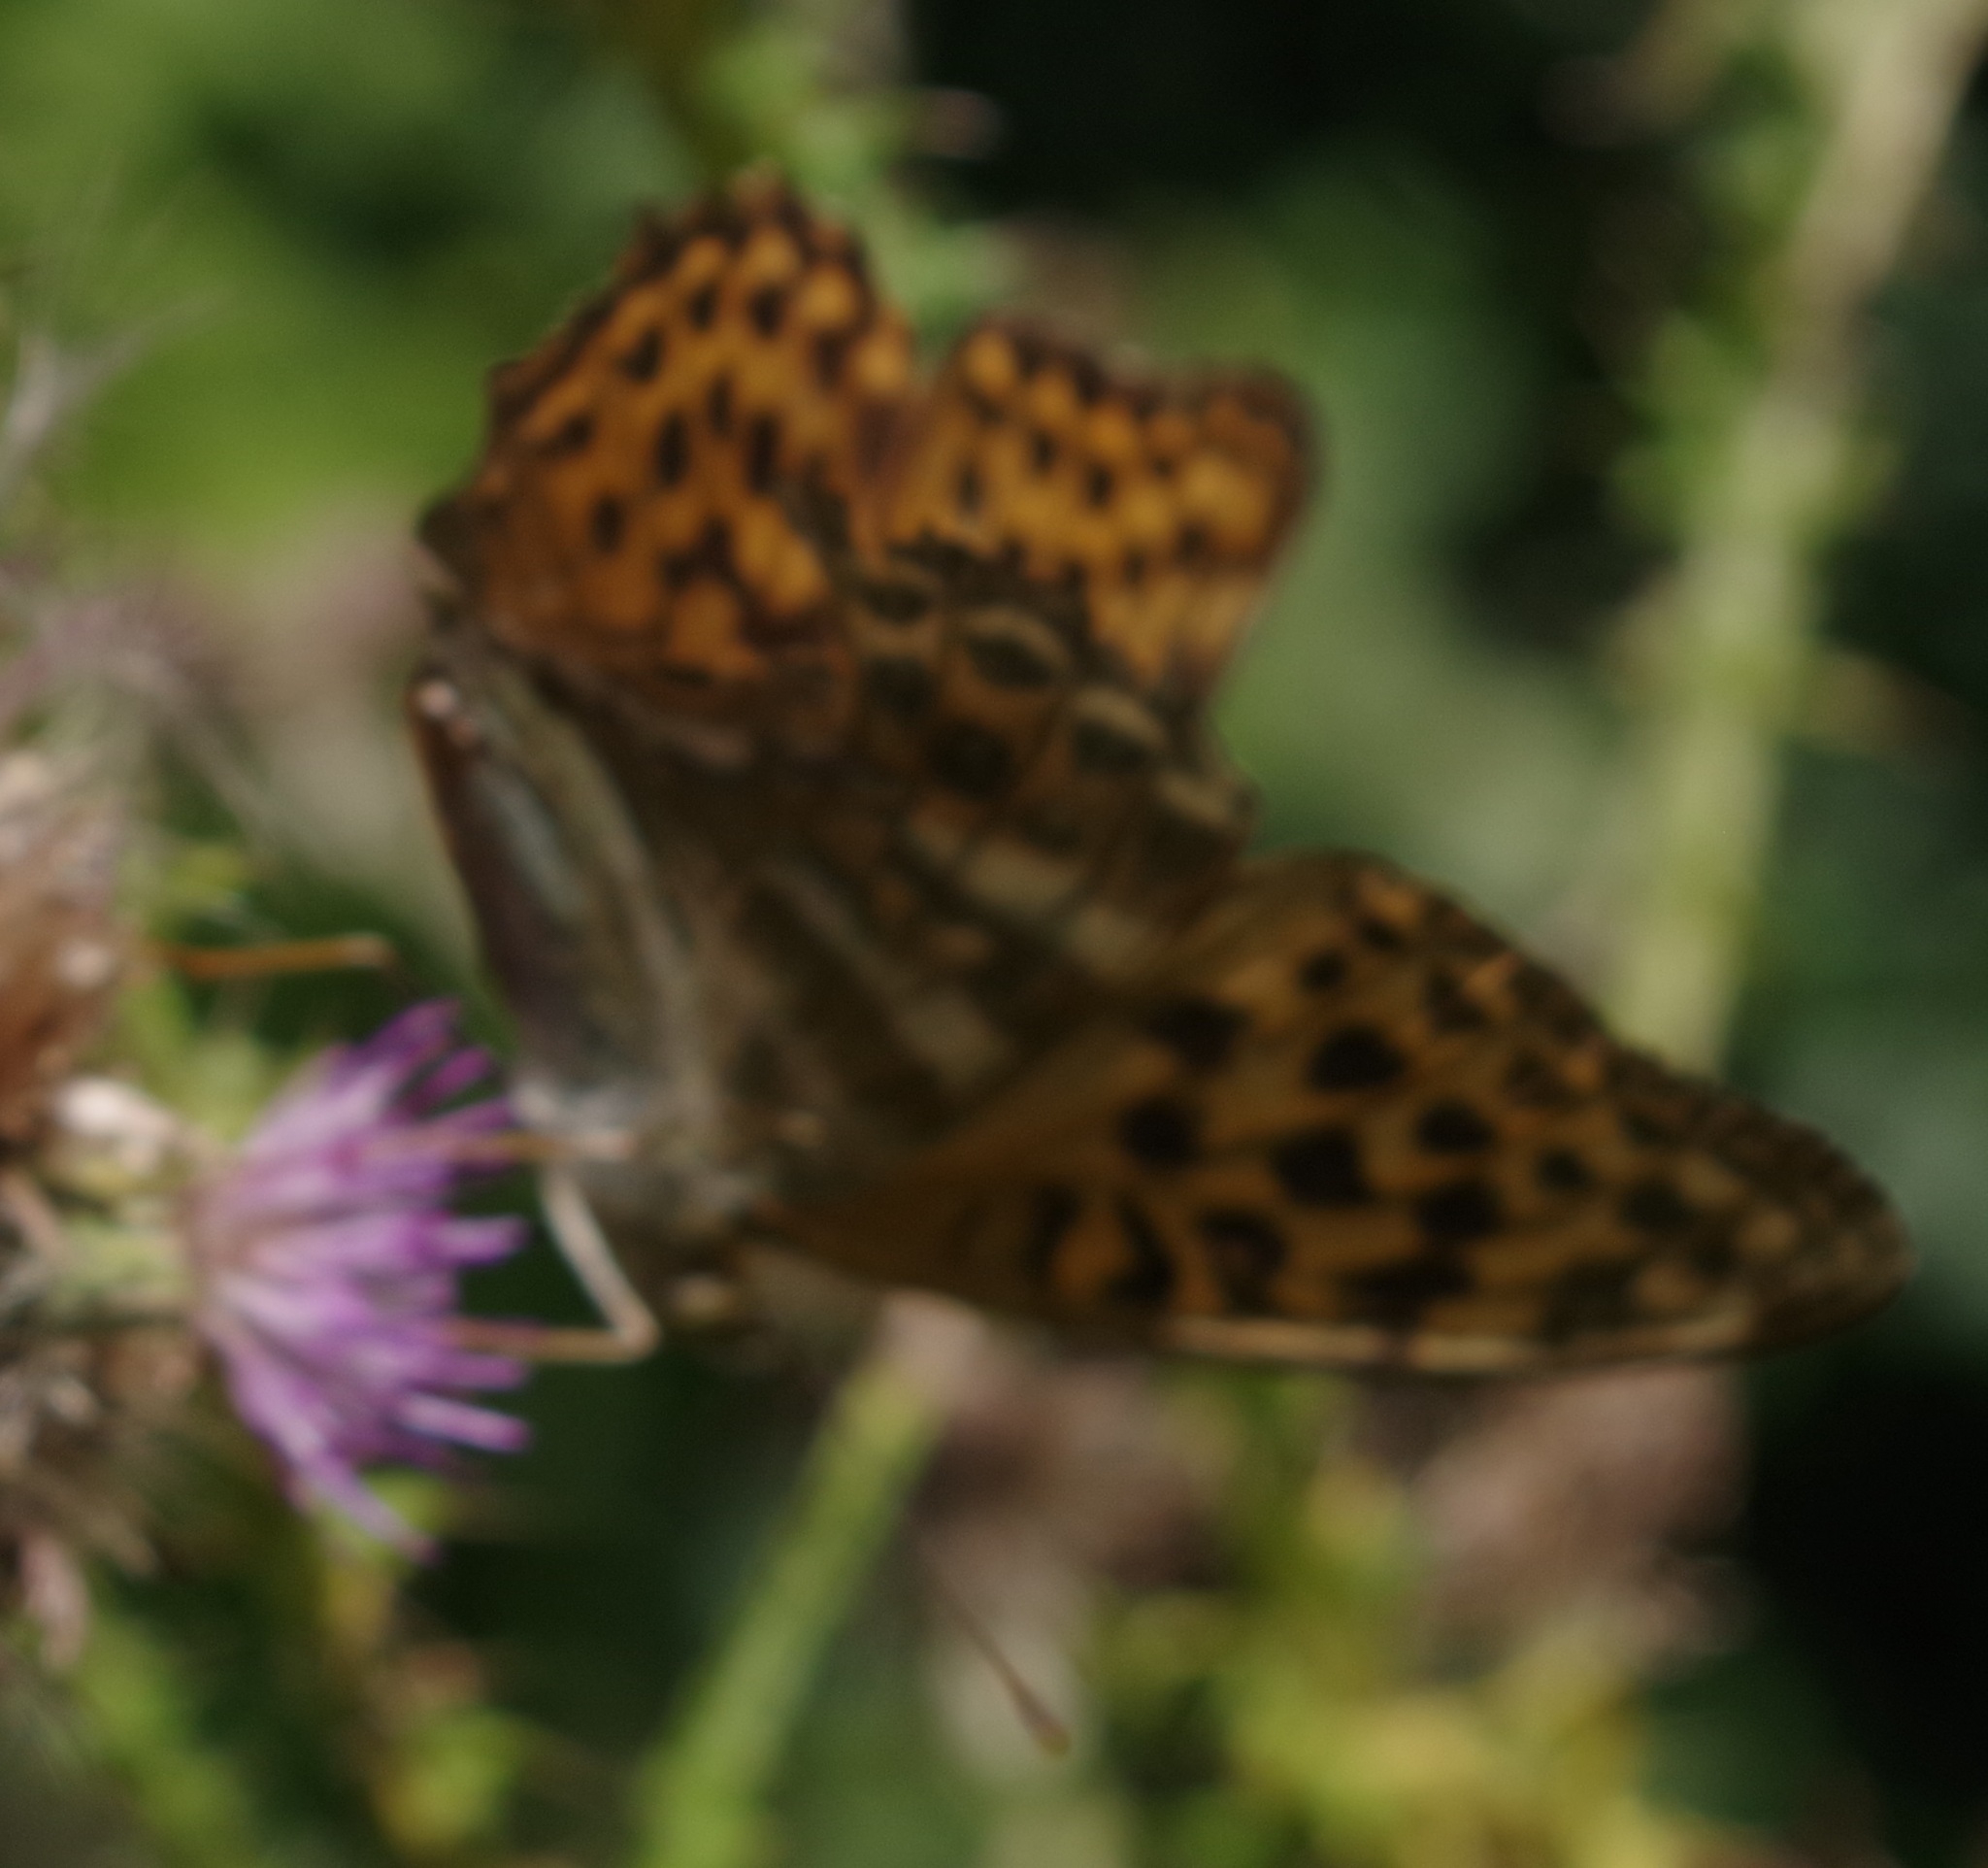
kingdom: Animalia
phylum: Arthropoda
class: Insecta
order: Lepidoptera
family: Nymphalidae
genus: Argynnis
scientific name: Argynnis paphia
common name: Silver-washed fritillary
